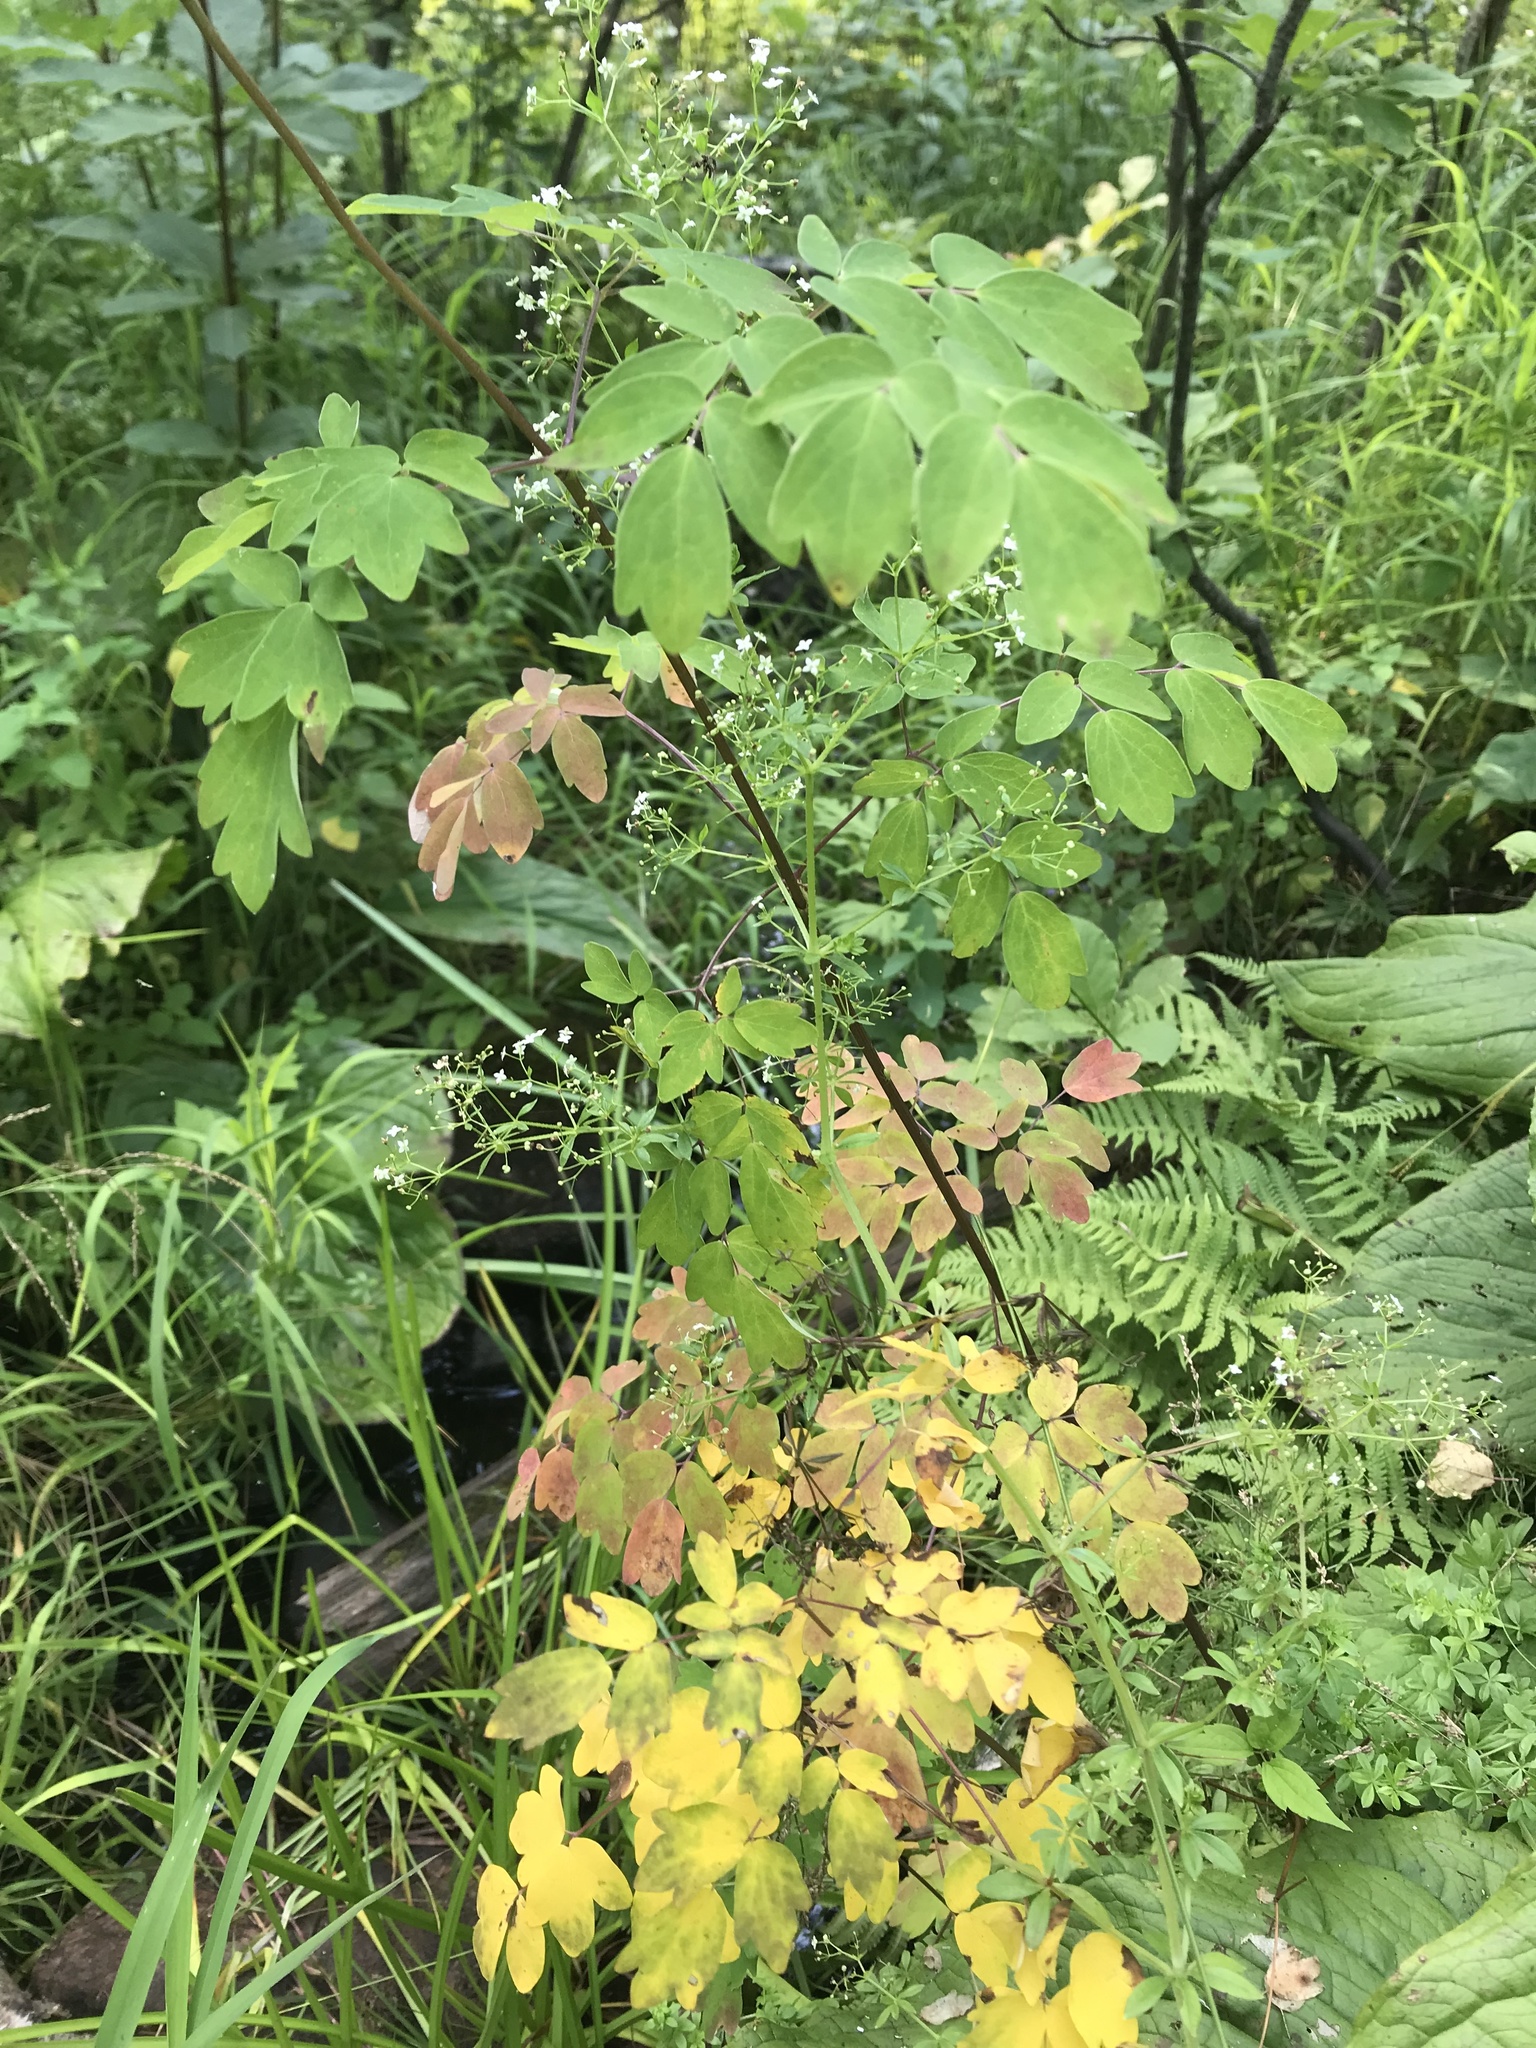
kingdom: Plantae
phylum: Tracheophyta
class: Magnoliopsida
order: Ranunculales
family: Ranunculaceae
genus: Thalictrum
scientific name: Thalictrum dasycarpum
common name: Purple meadow-rue
